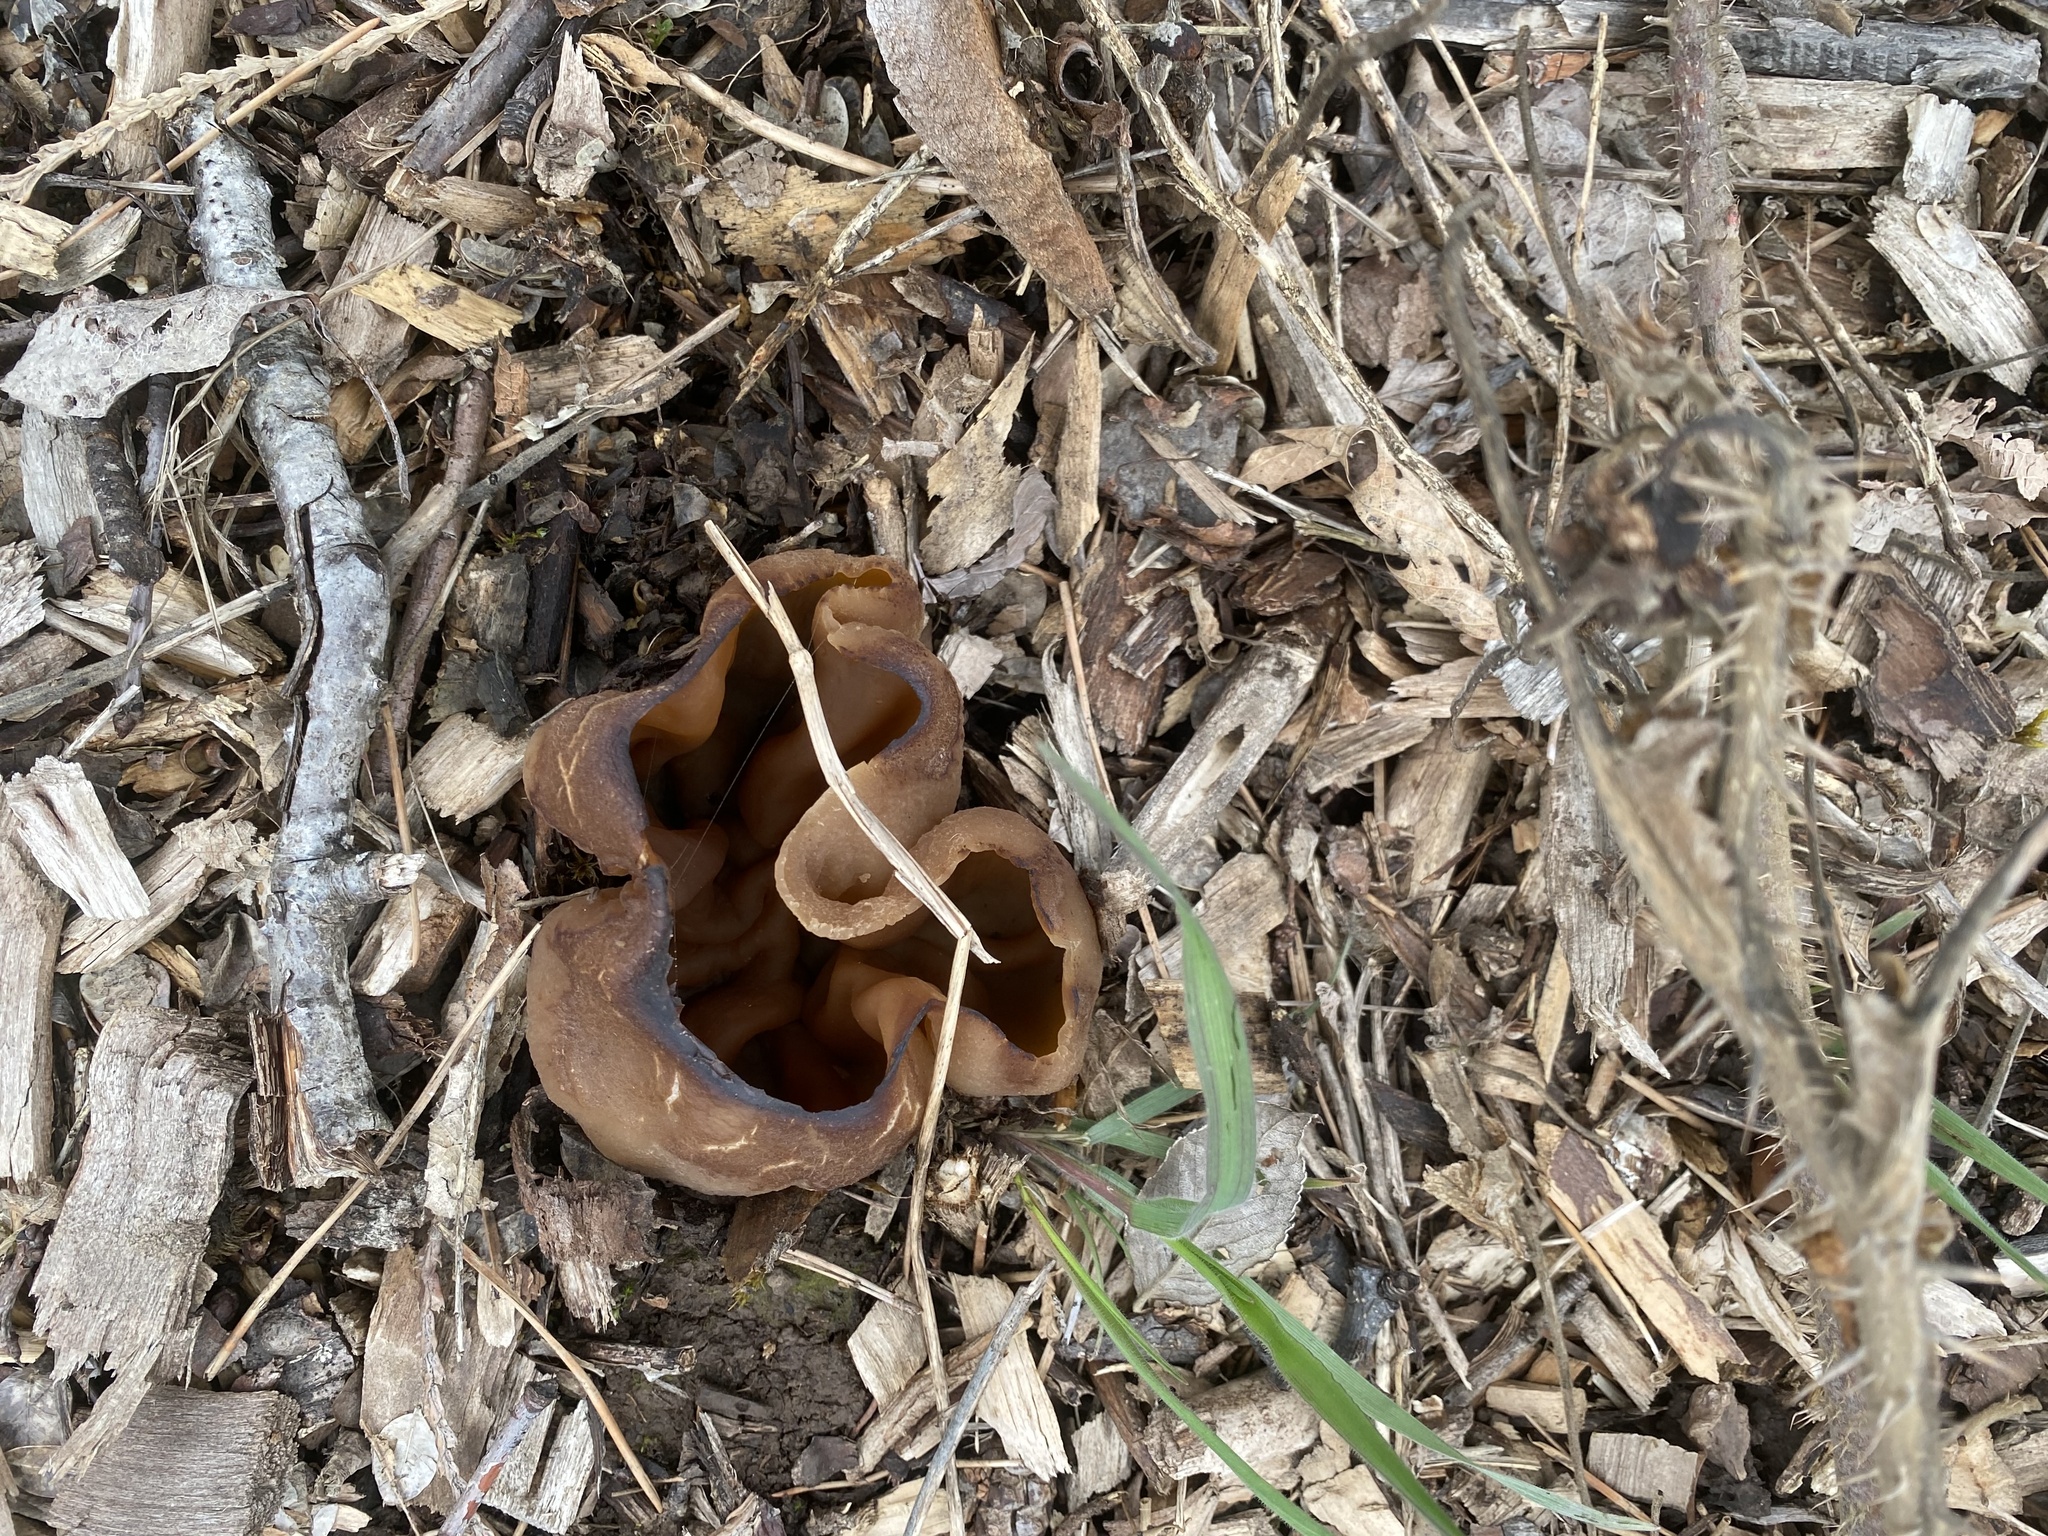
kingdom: Fungi
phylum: Ascomycota
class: Pezizomycetes
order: Pezizales
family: Pezizaceae
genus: Peziza
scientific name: Peziza vesiculosa
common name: Blistered cup
